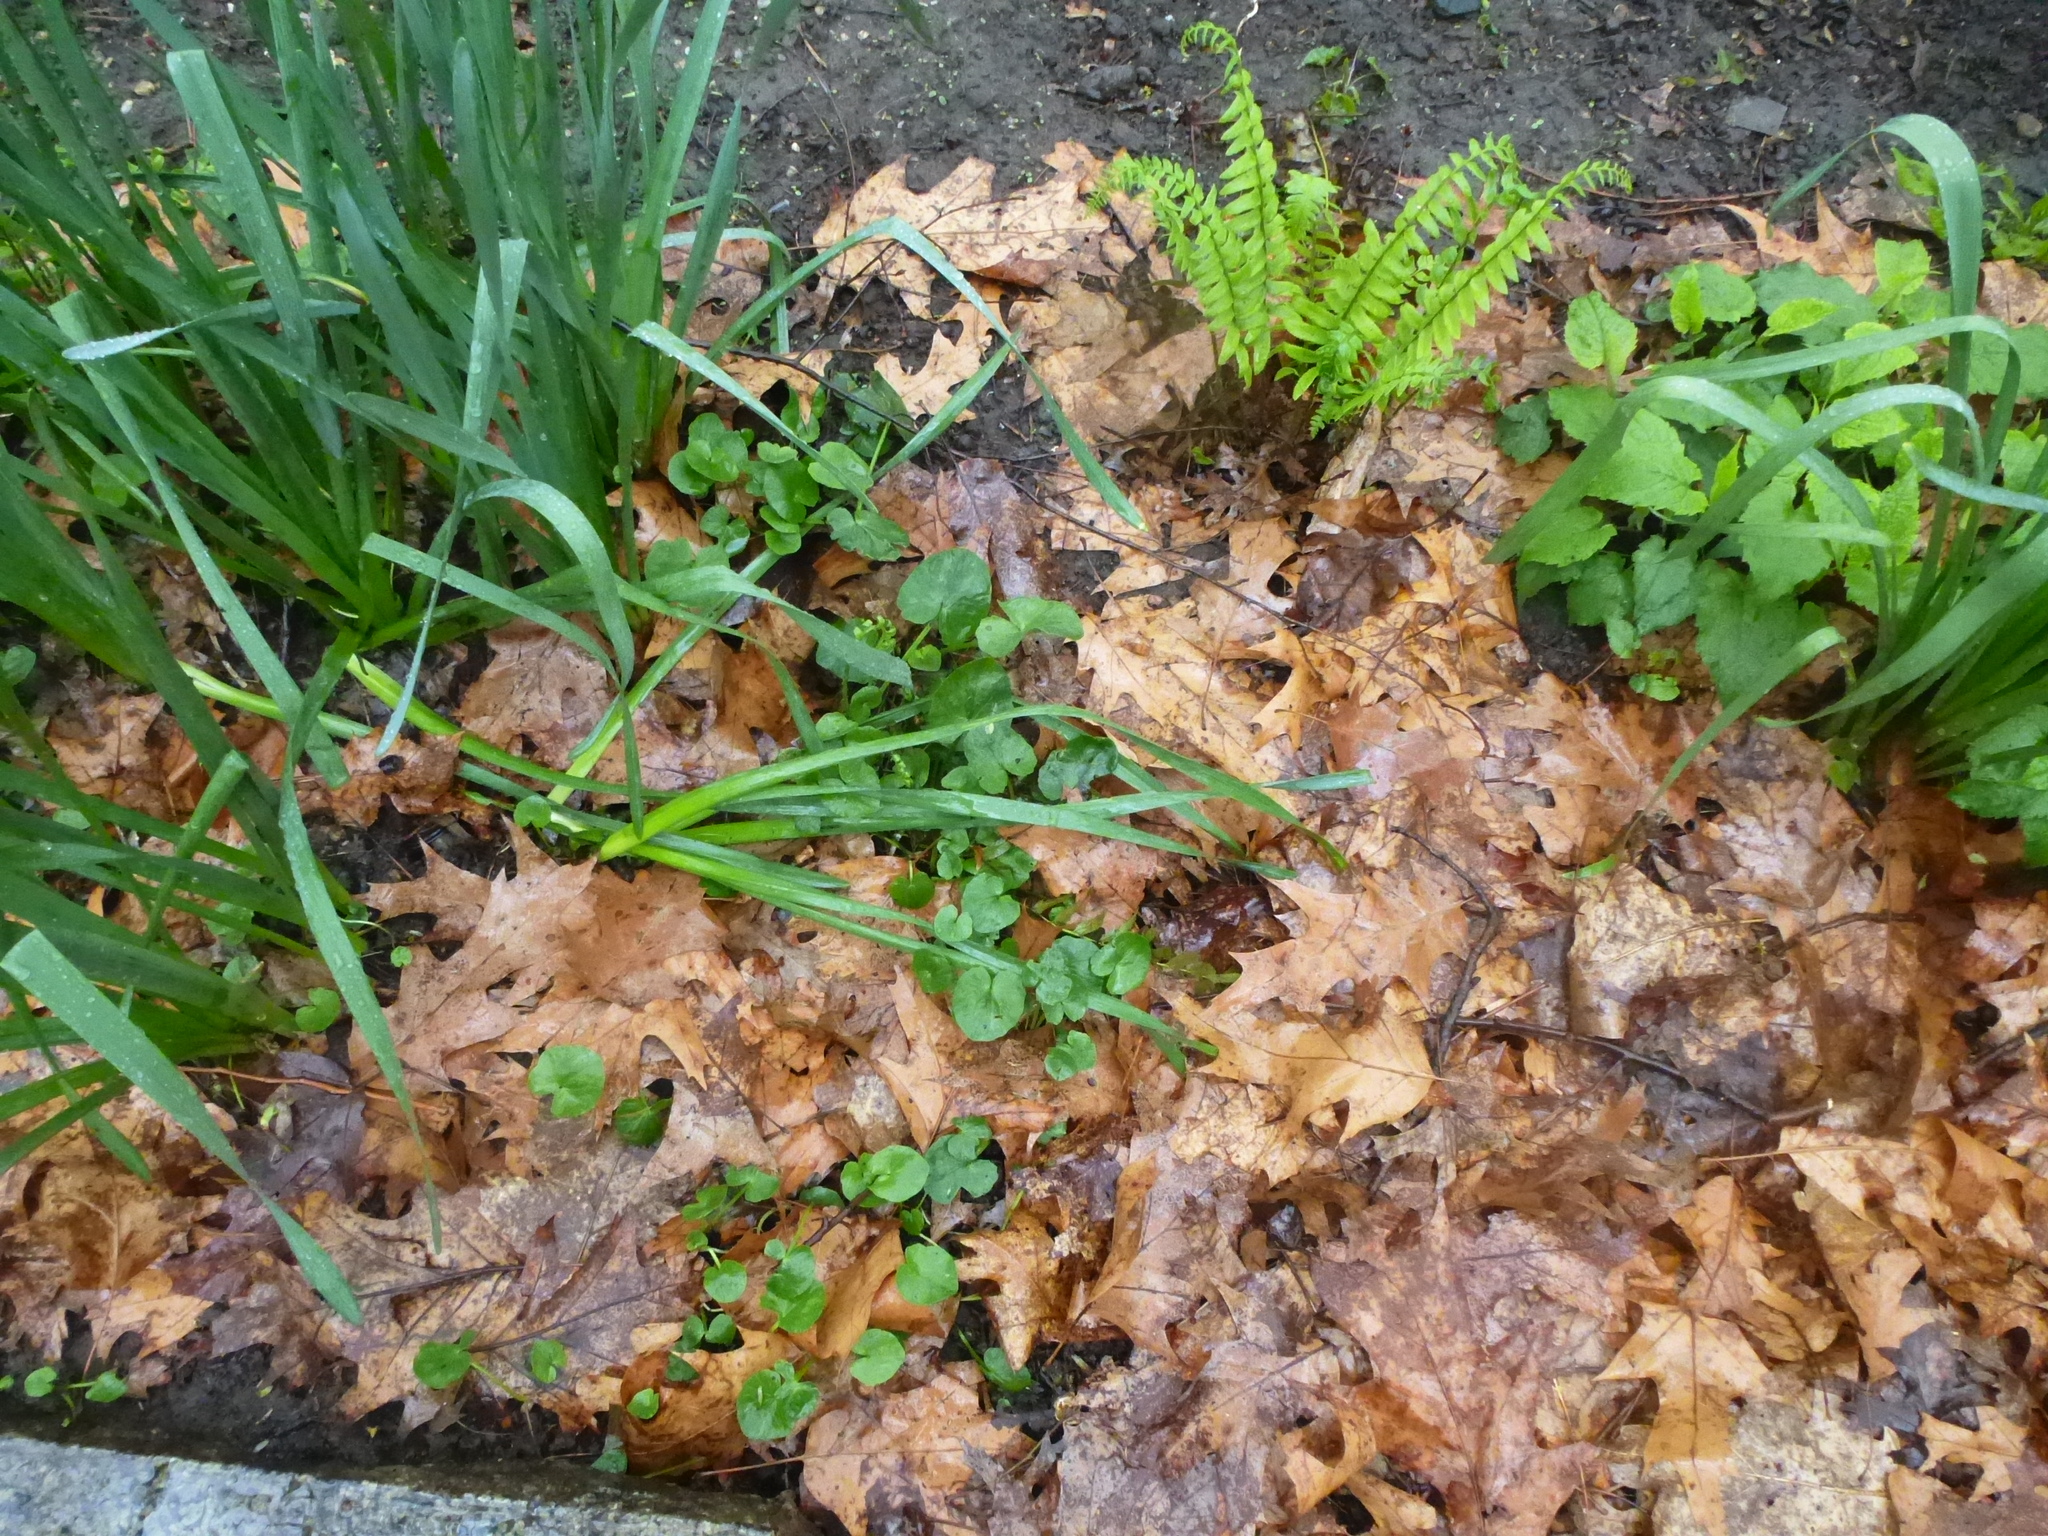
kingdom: Plantae
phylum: Tracheophyta
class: Magnoliopsida
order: Ranunculales
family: Ranunculaceae
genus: Ficaria
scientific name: Ficaria verna
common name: Lesser celandine
